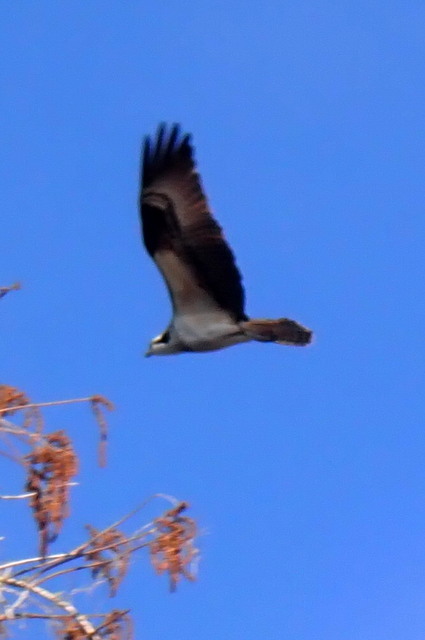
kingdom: Animalia
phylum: Chordata
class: Aves
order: Accipitriformes
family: Pandionidae
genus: Pandion
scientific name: Pandion haliaetus
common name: Osprey
